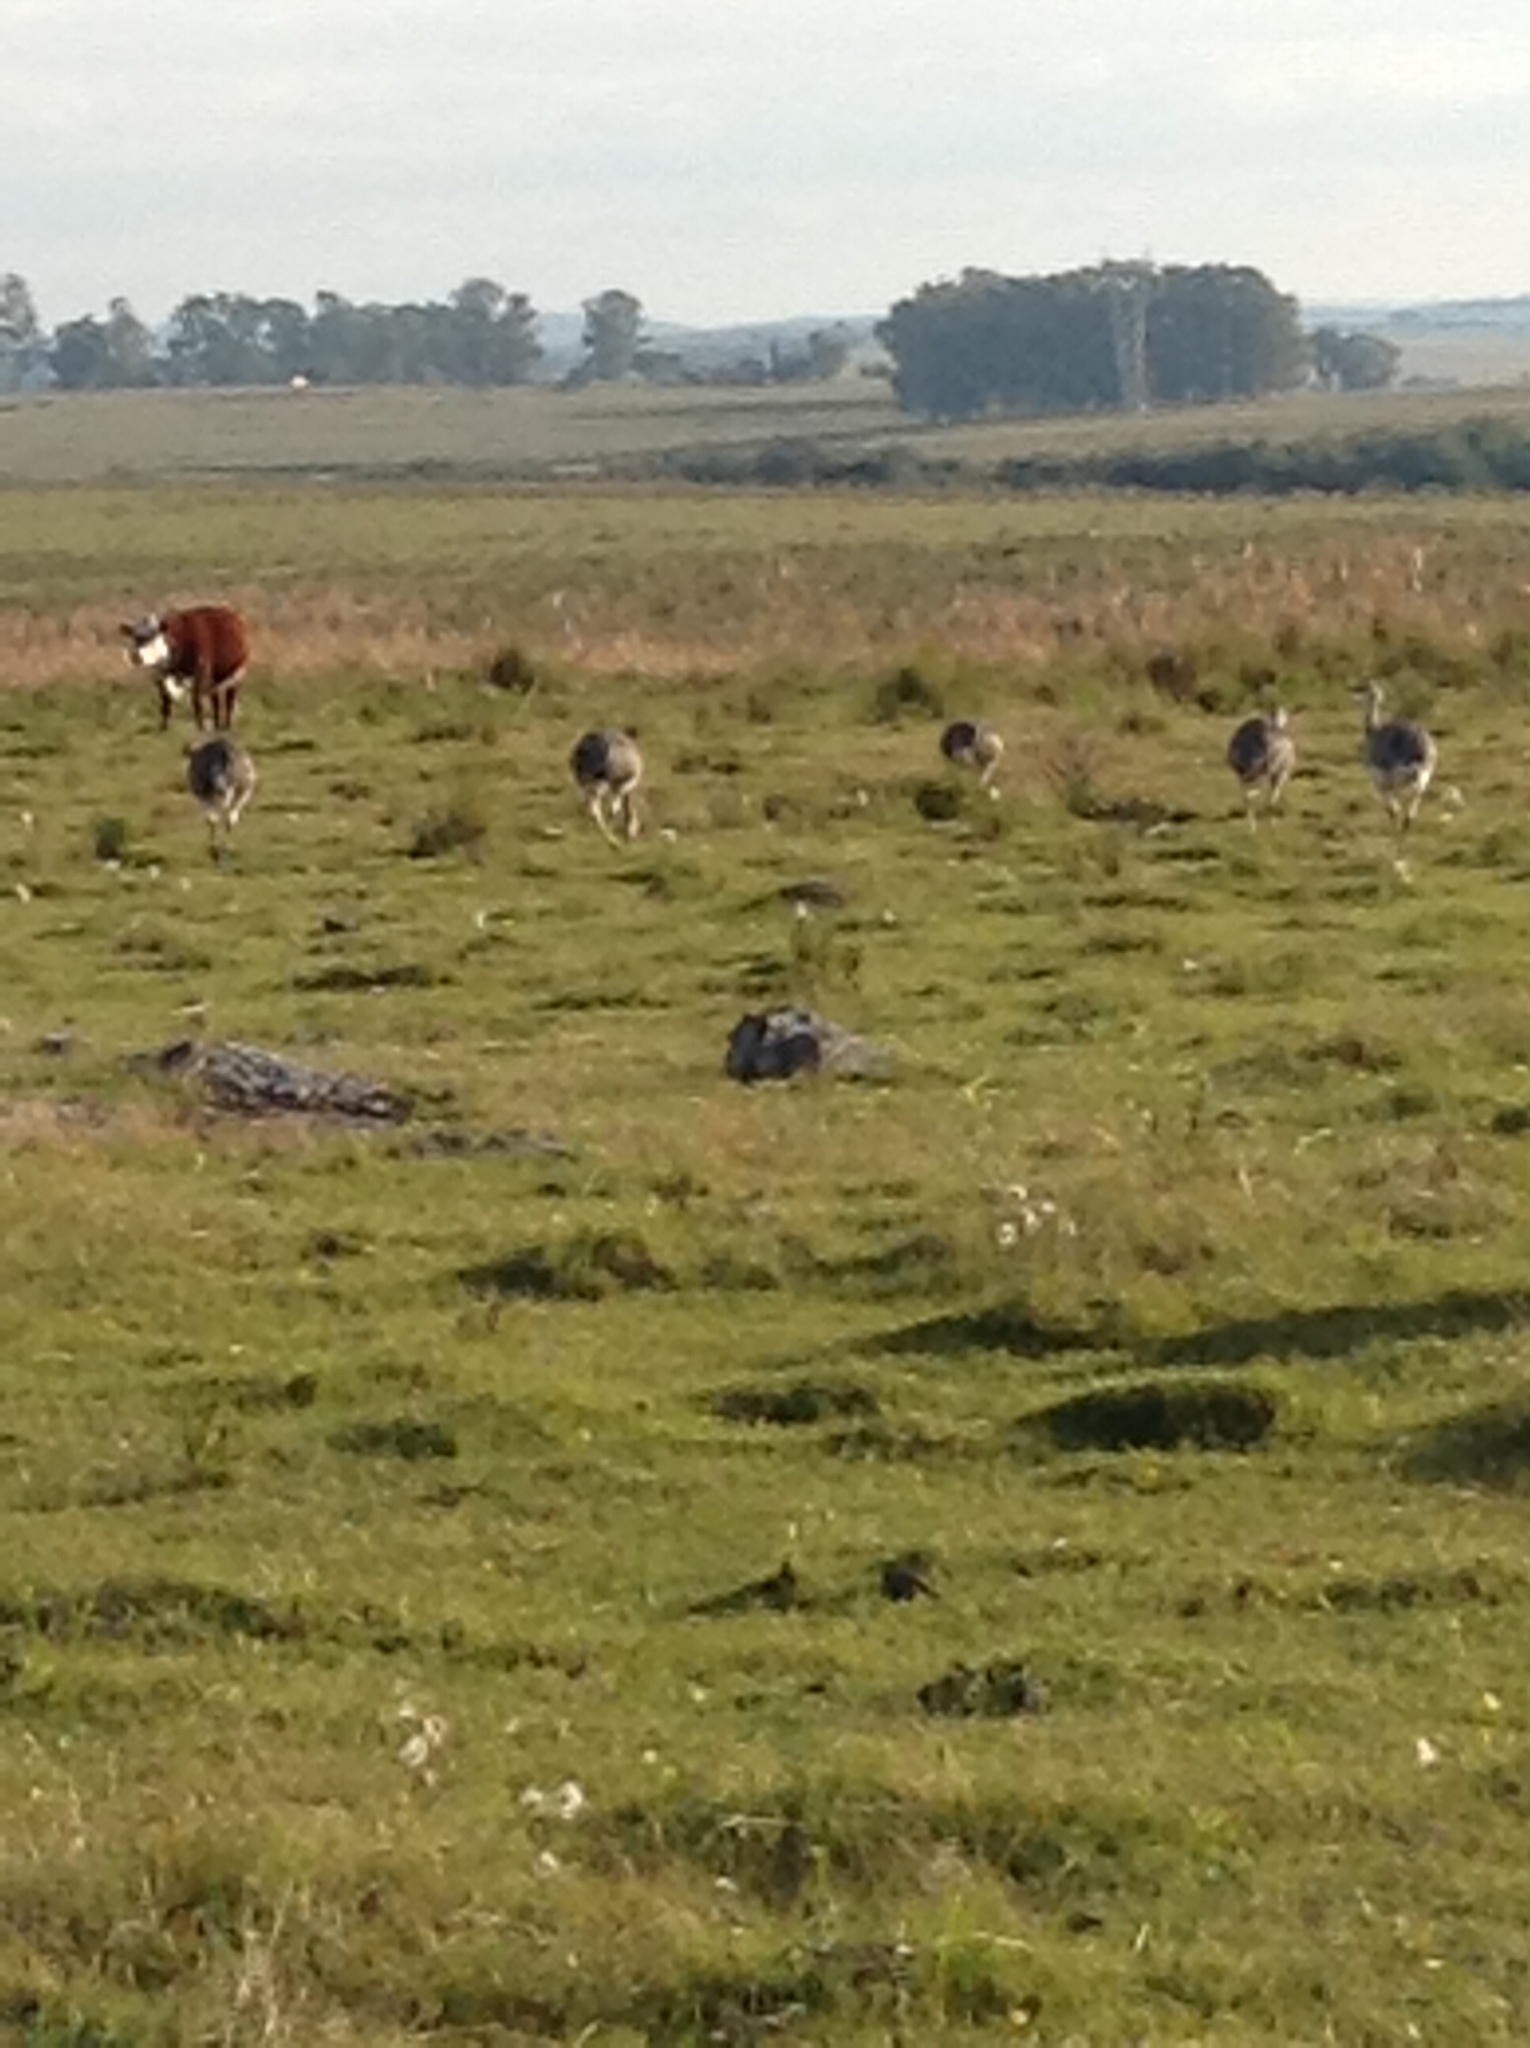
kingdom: Animalia
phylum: Chordata
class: Aves
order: Rheiformes
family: Rheidae
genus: Rhea
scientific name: Rhea americana
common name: Greater rhea
